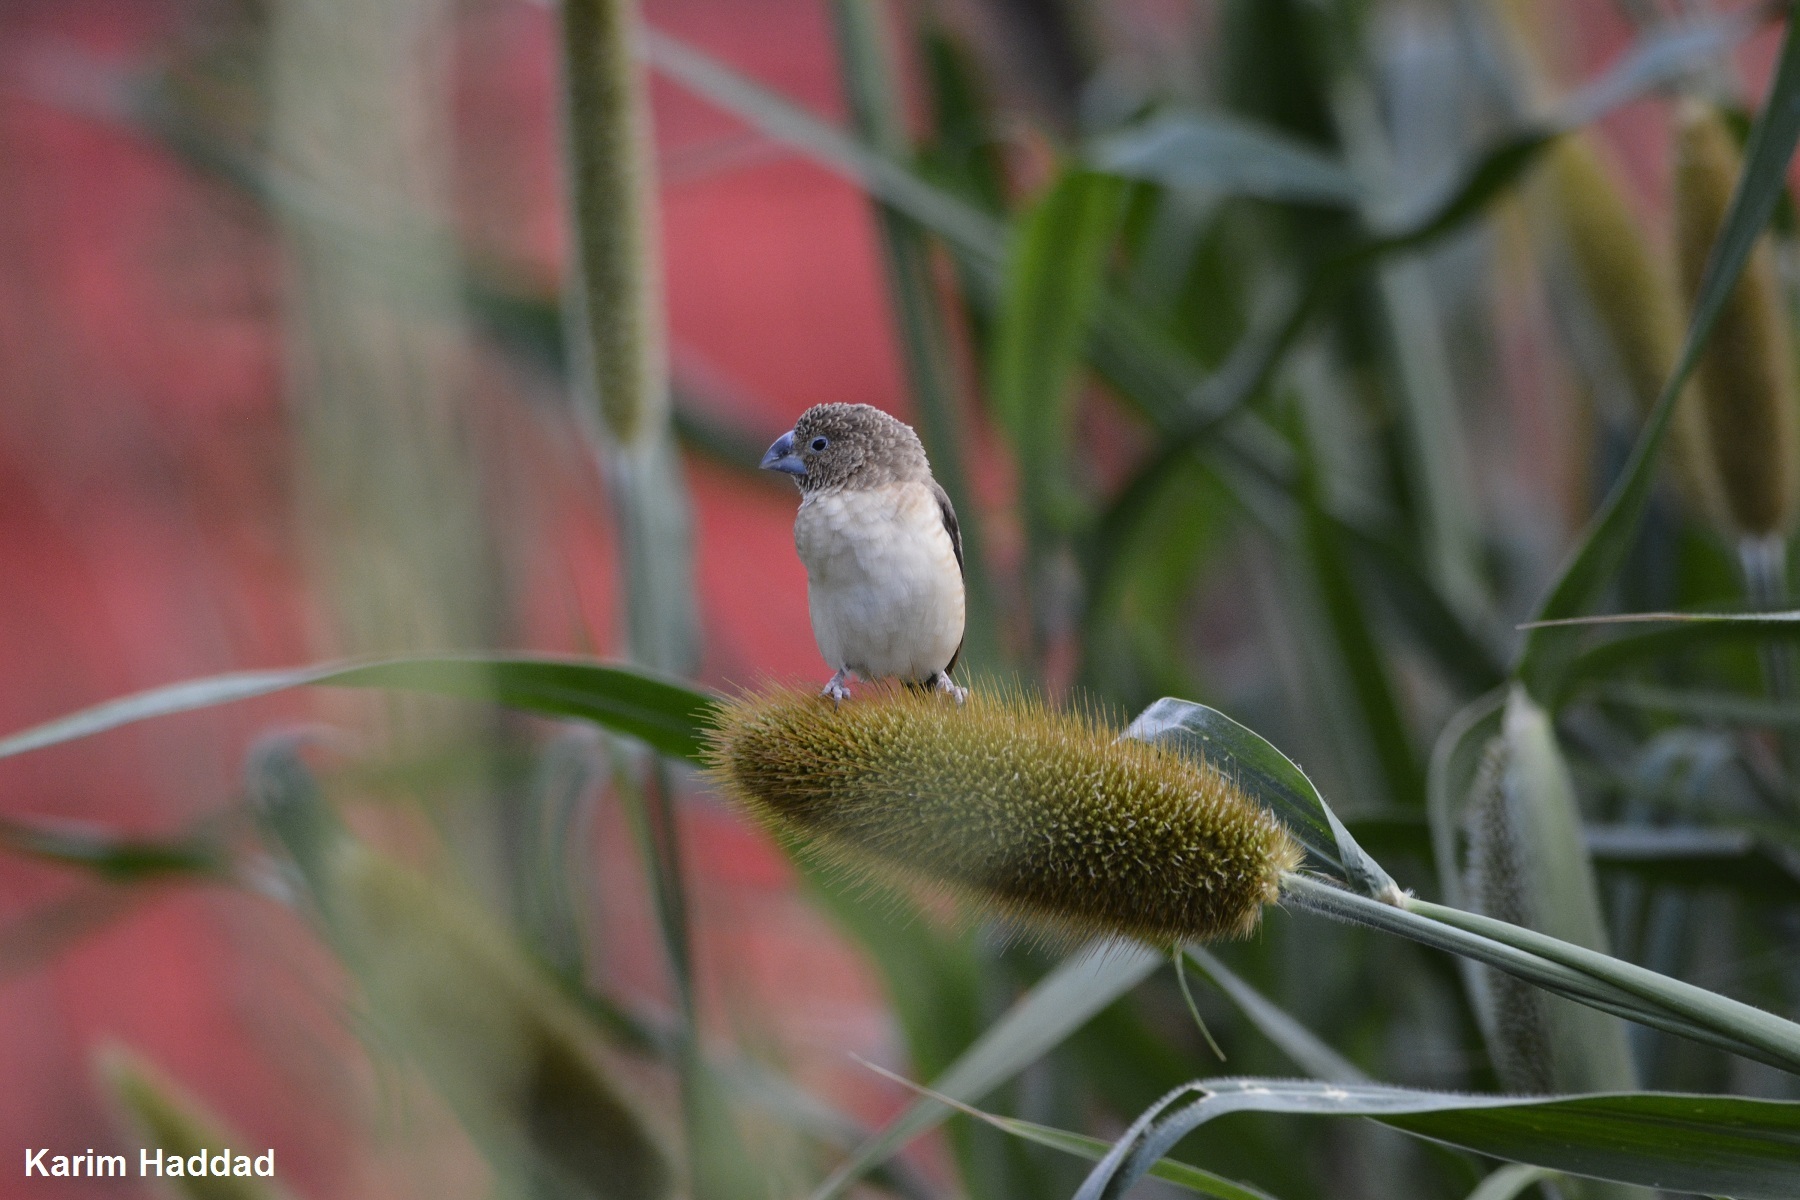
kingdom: Animalia
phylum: Chordata
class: Aves
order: Passeriformes
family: Estrildidae
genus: Euodice
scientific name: Euodice cantans
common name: African silverbill
